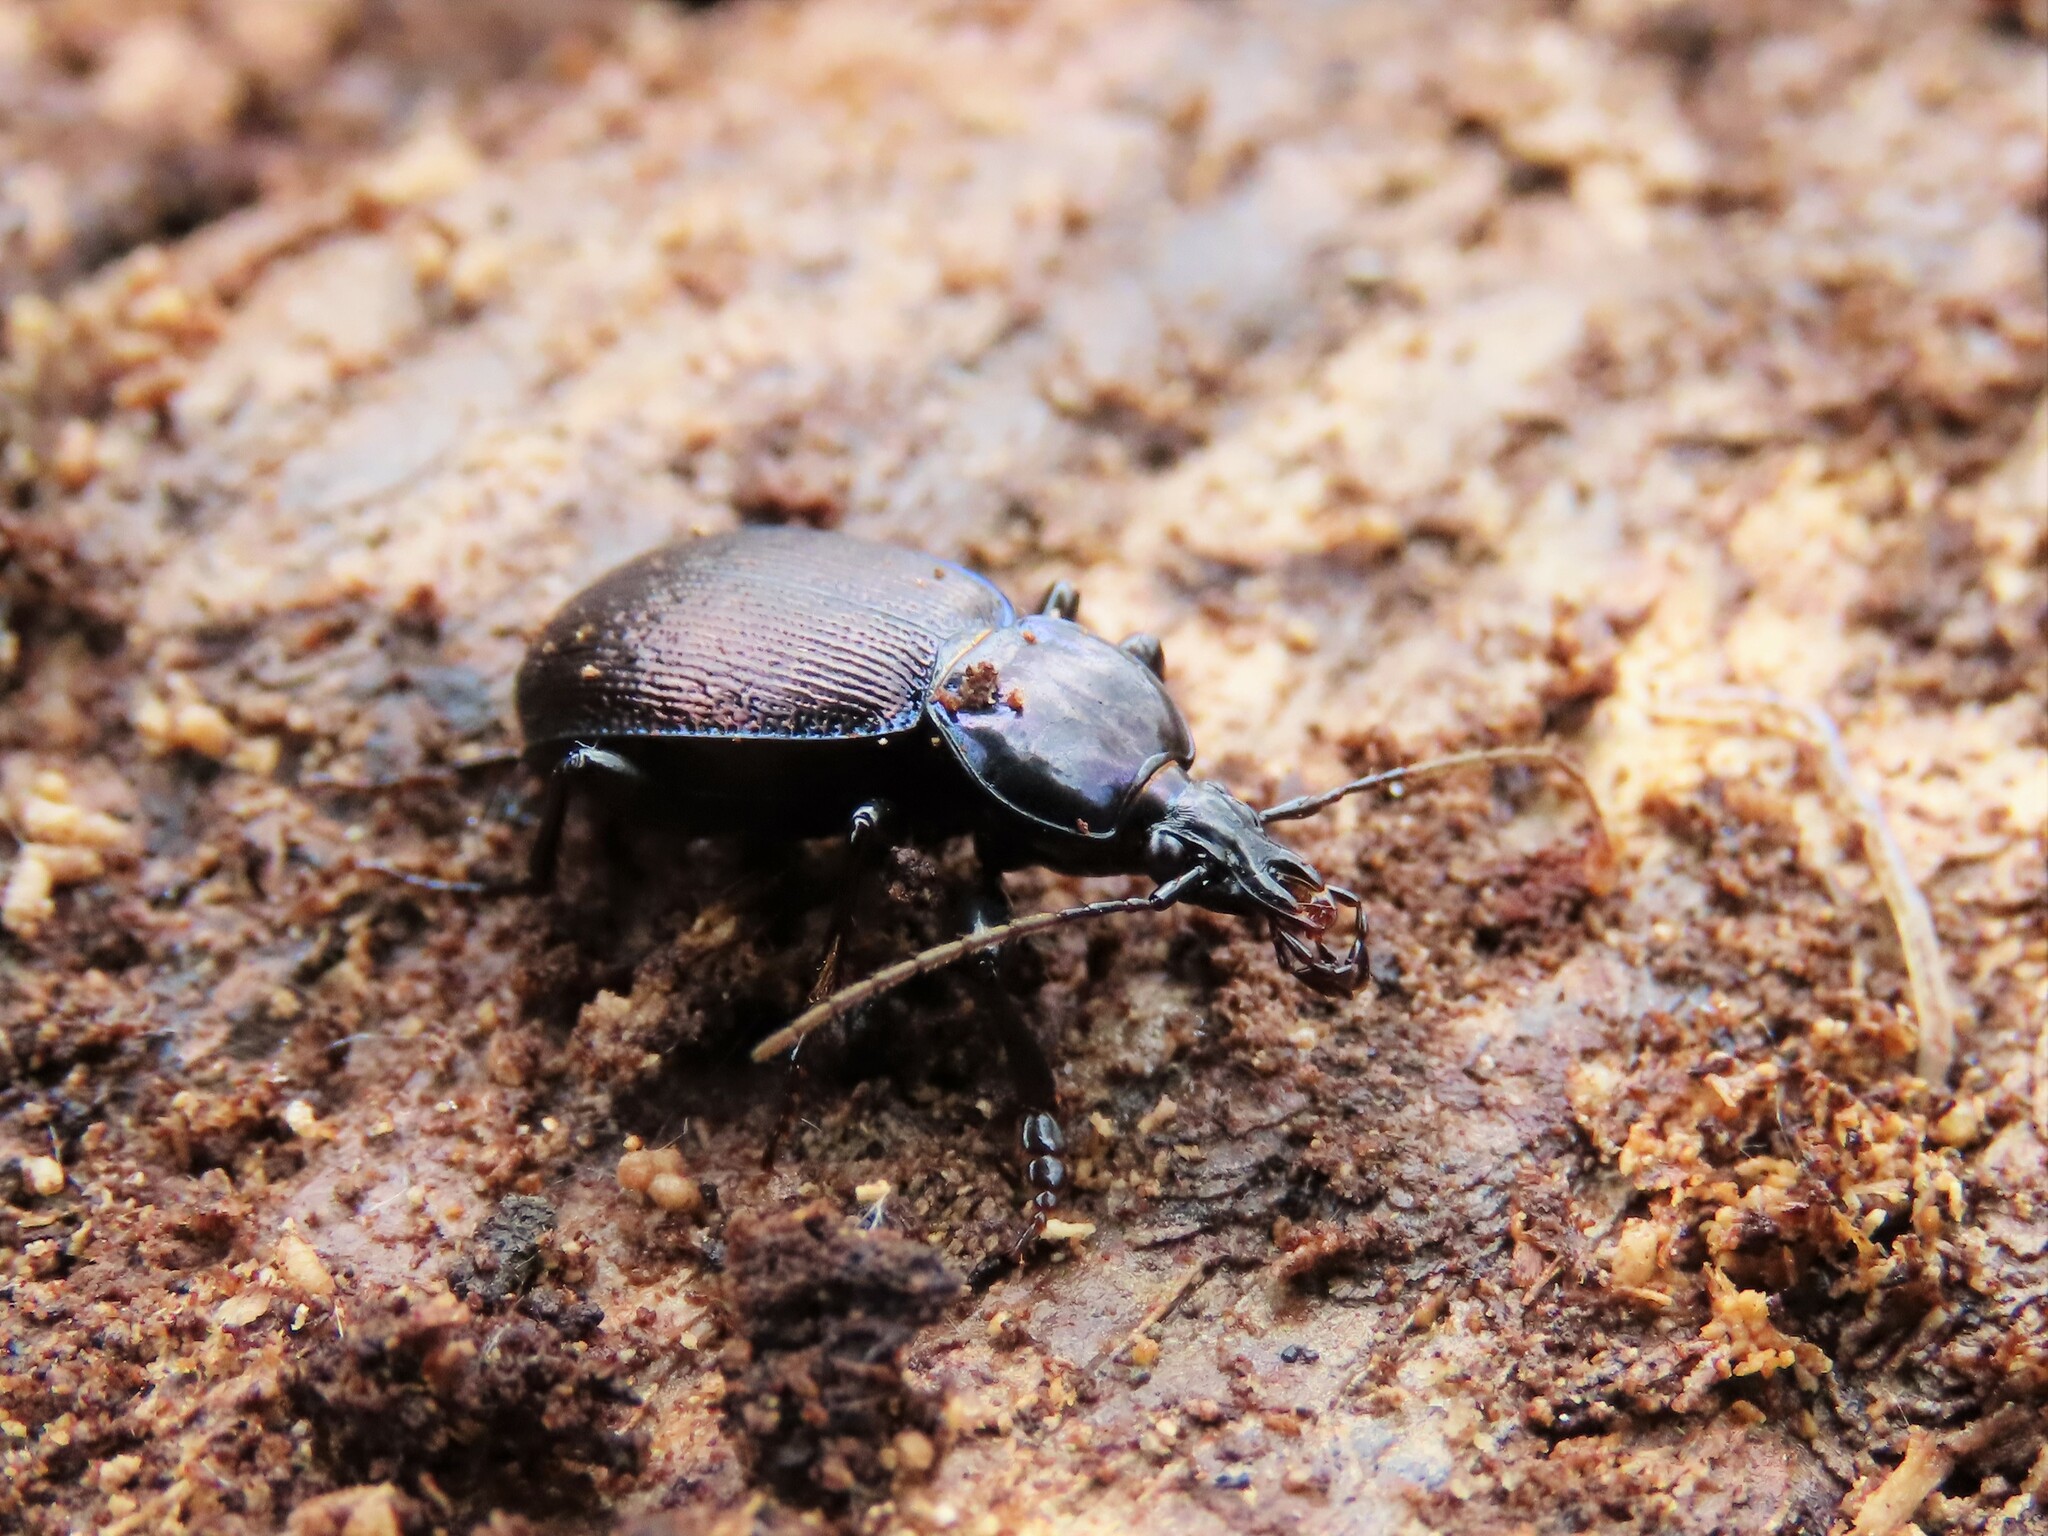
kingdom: Animalia
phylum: Arthropoda
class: Insecta
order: Coleoptera
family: Carabidae
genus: Sphaeroderus
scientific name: Sphaeroderus stenostomus
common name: Small snail-eating ground beetle
